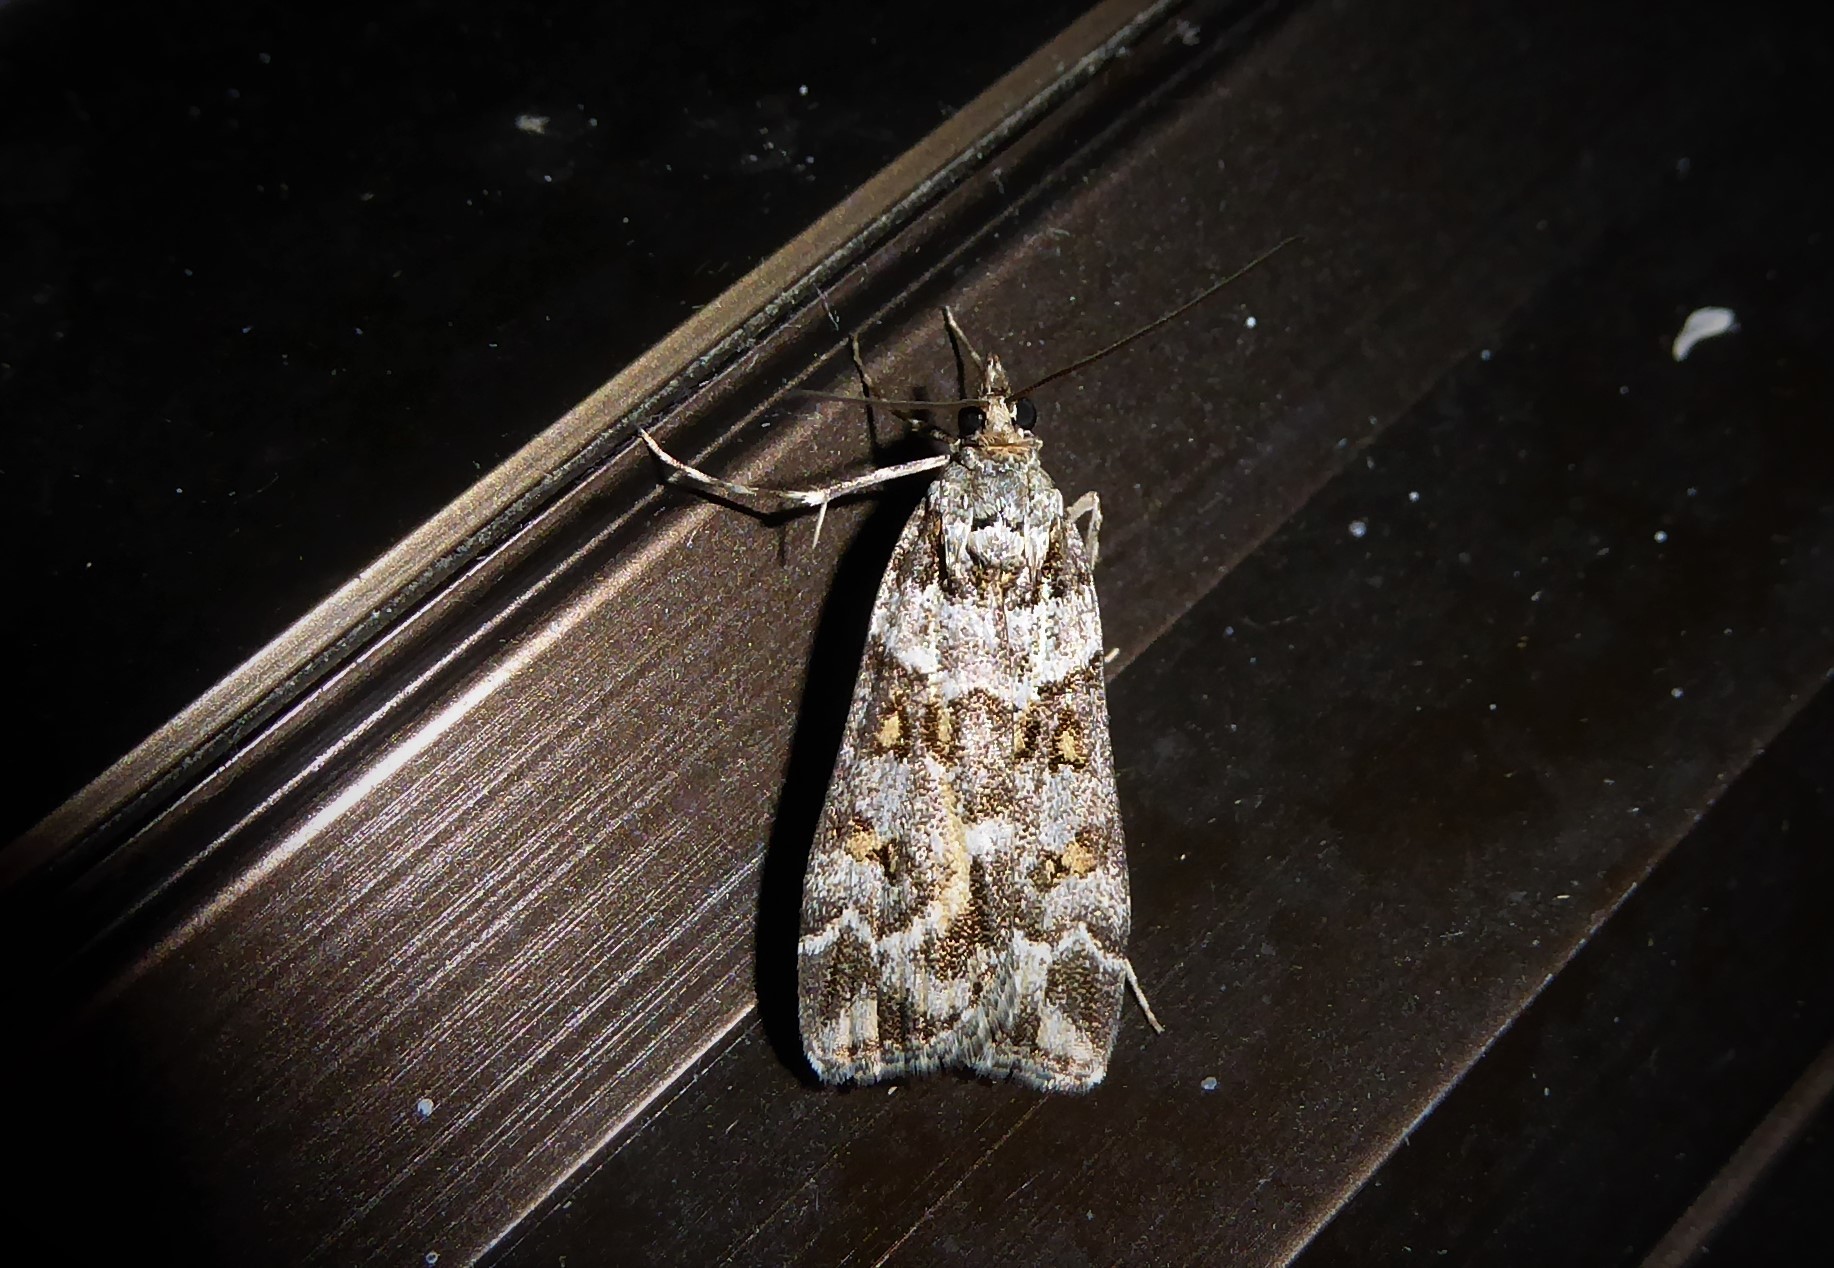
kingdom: Animalia
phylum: Arthropoda
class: Insecta
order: Lepidoptera
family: Crambidae
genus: Eudonia
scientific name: Eudonia diphtheralis
